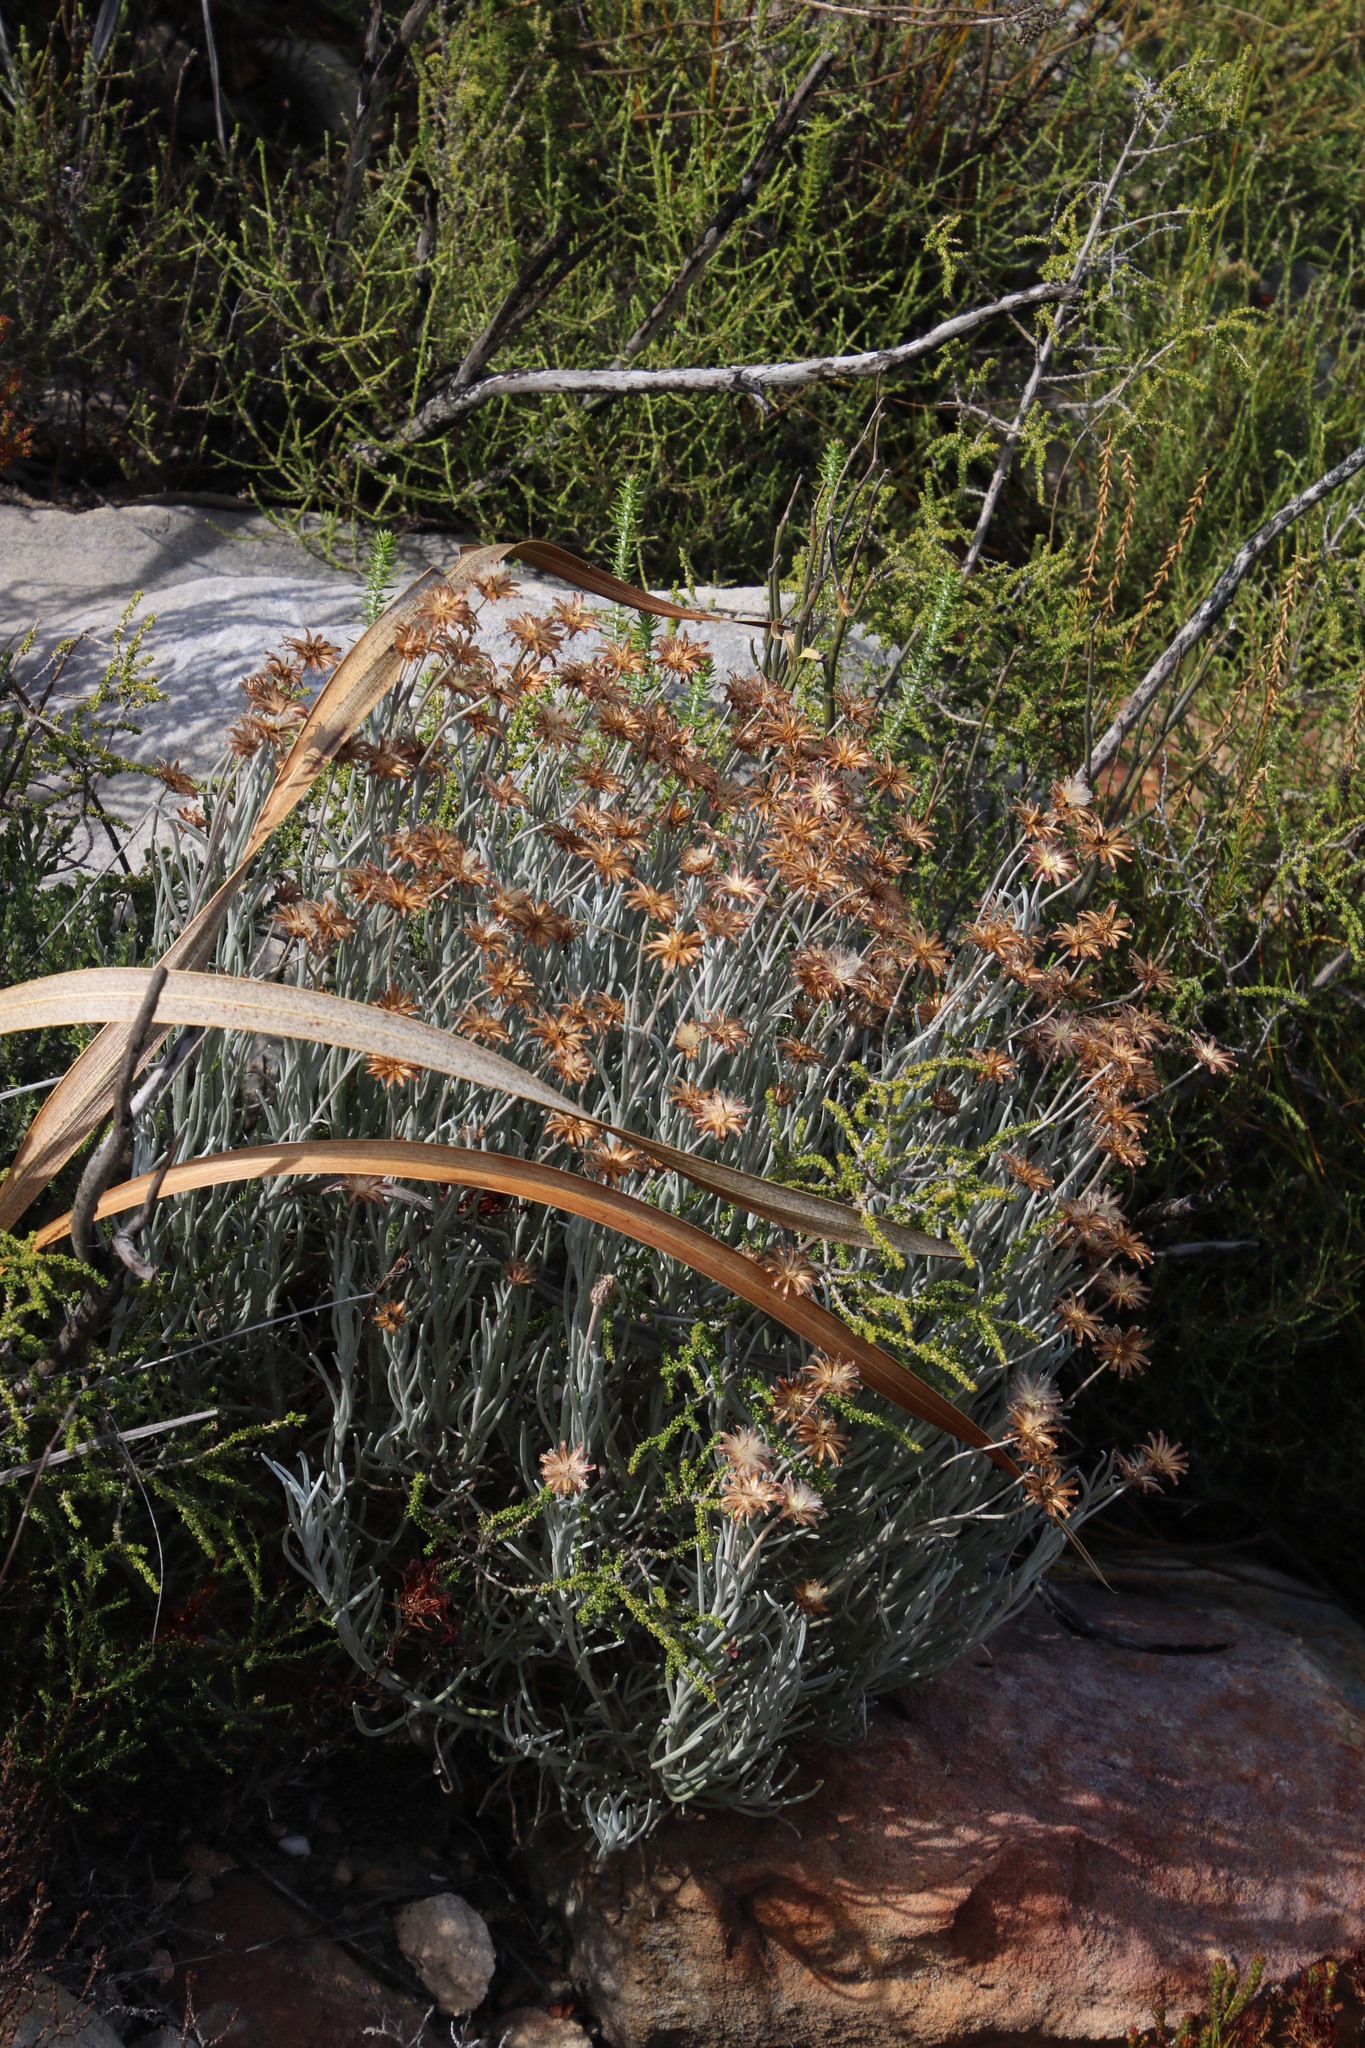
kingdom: Plantae
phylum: Tracheophyta
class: Magnoliopsida
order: Asterales
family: Asteraceae
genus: Syncarpha
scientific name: Syncarpha gnaphaloides
